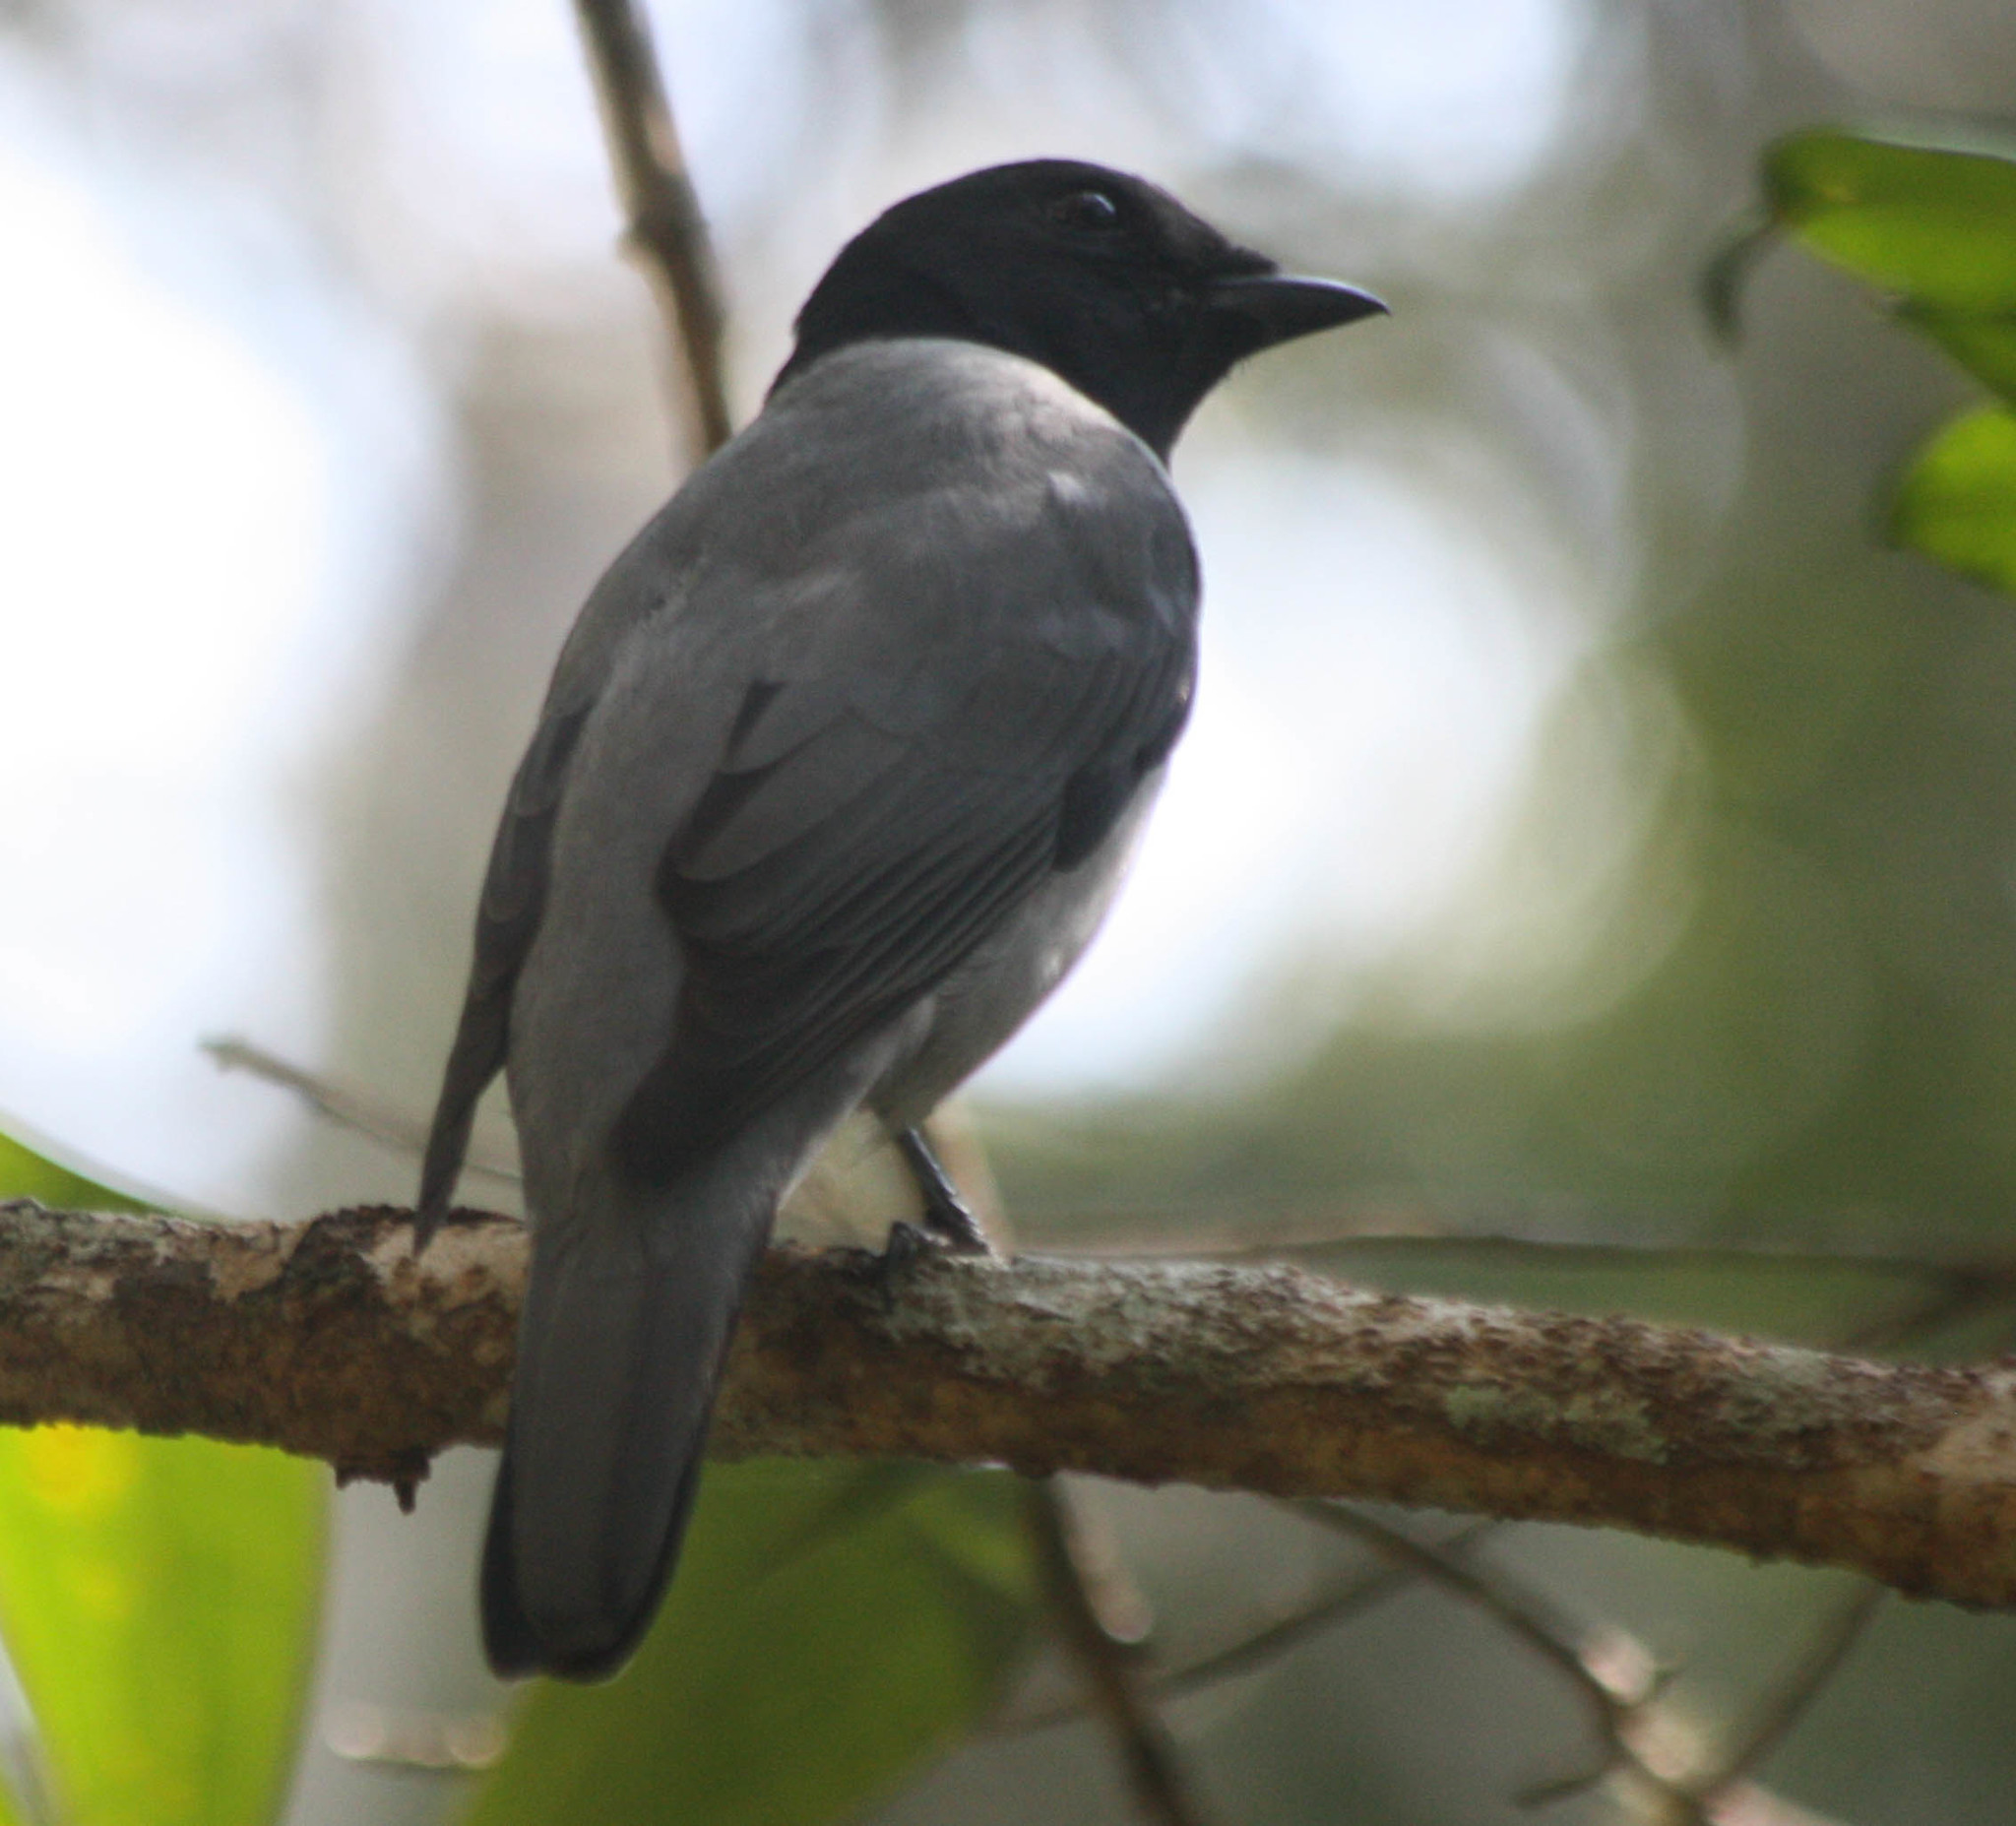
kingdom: Animalia
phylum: Chordata
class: Aves
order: Passeriformes
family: Campephagidae
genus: Coracina
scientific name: Coracina cinerea
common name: Madagascan cuckooshrike
